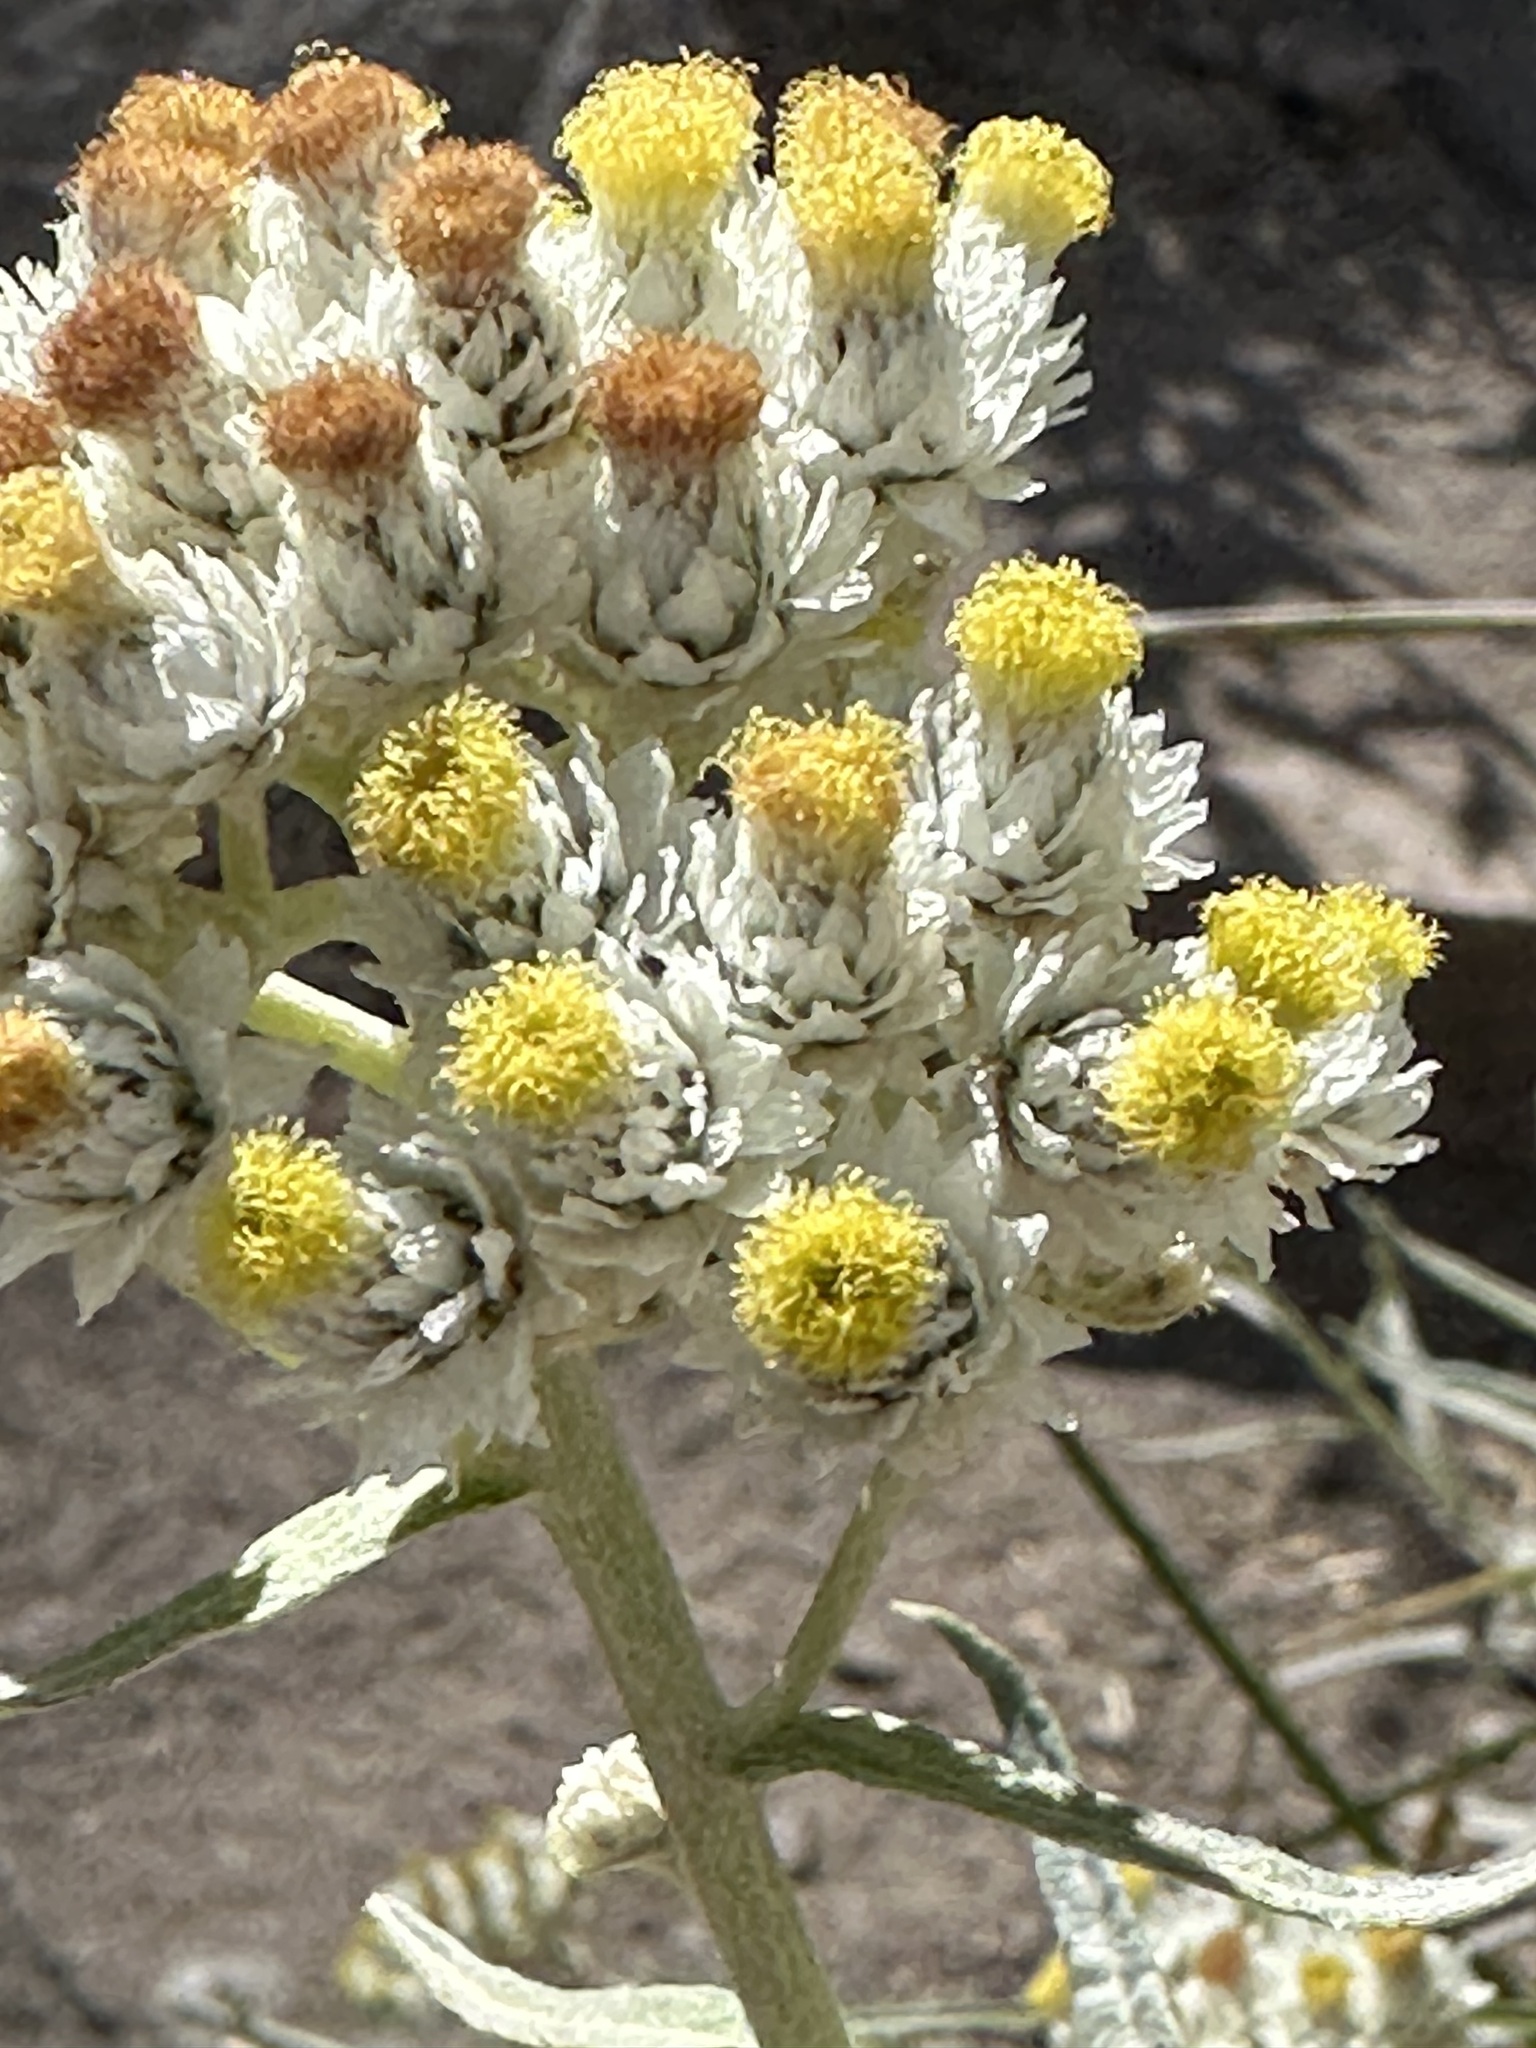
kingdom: Plantae
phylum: Tracheophyta
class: Magnoliopsida
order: Asterales
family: Asteraceae
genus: Anaphalis
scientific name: Anaphalis margaritacea
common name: Pearly everlasting
